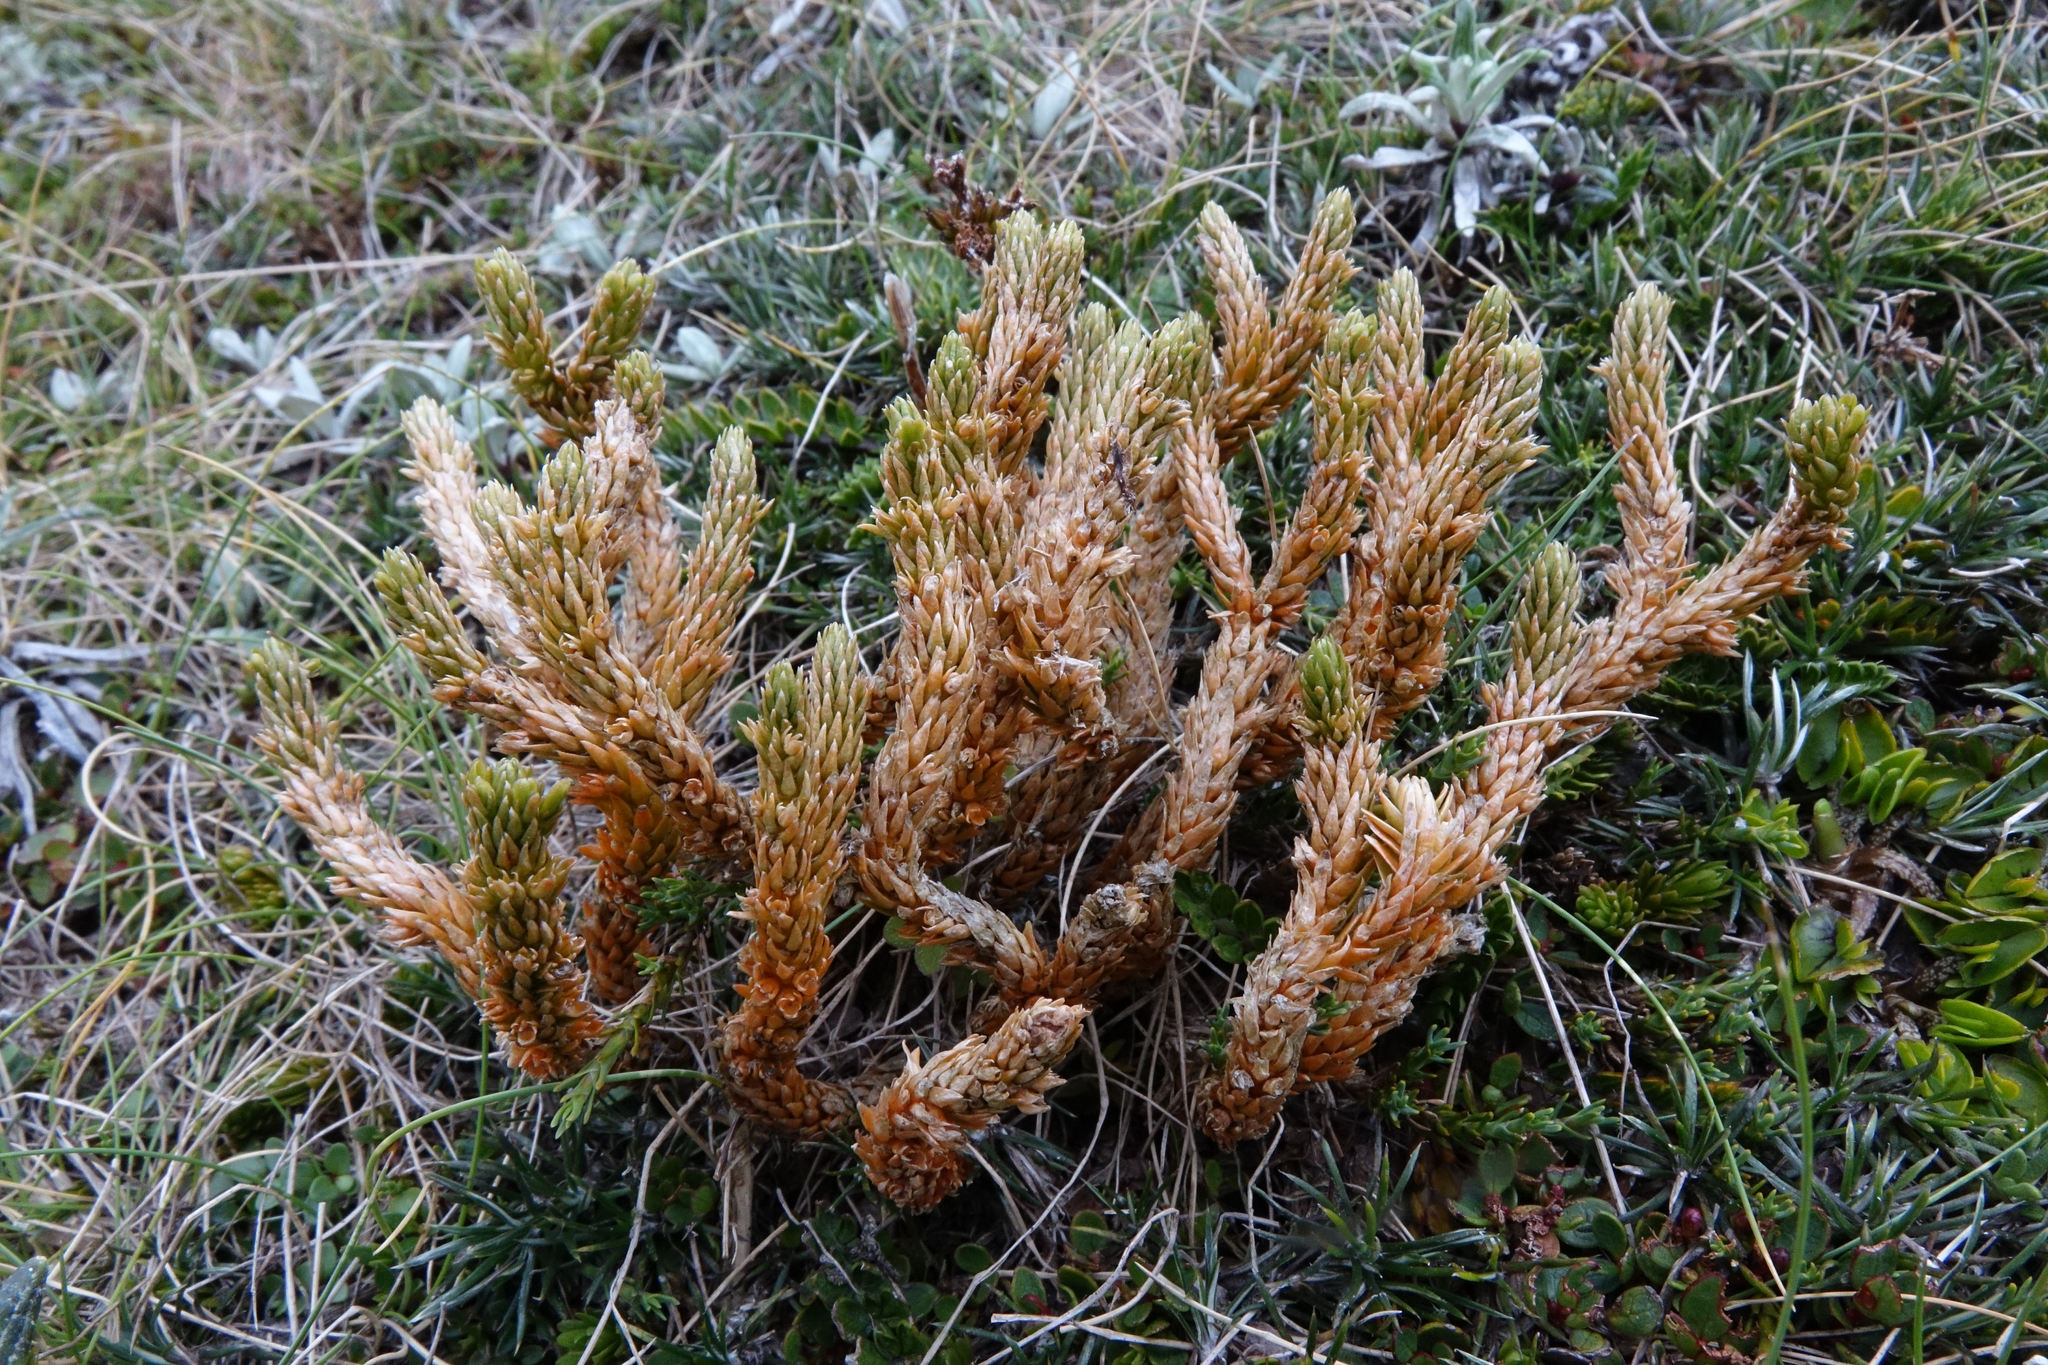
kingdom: Plantae
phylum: Tracheophyta
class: Lycopodiopsida
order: Lycopodiales
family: Lycopodiaceae
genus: Huperzia
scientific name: Huperzia australiana
